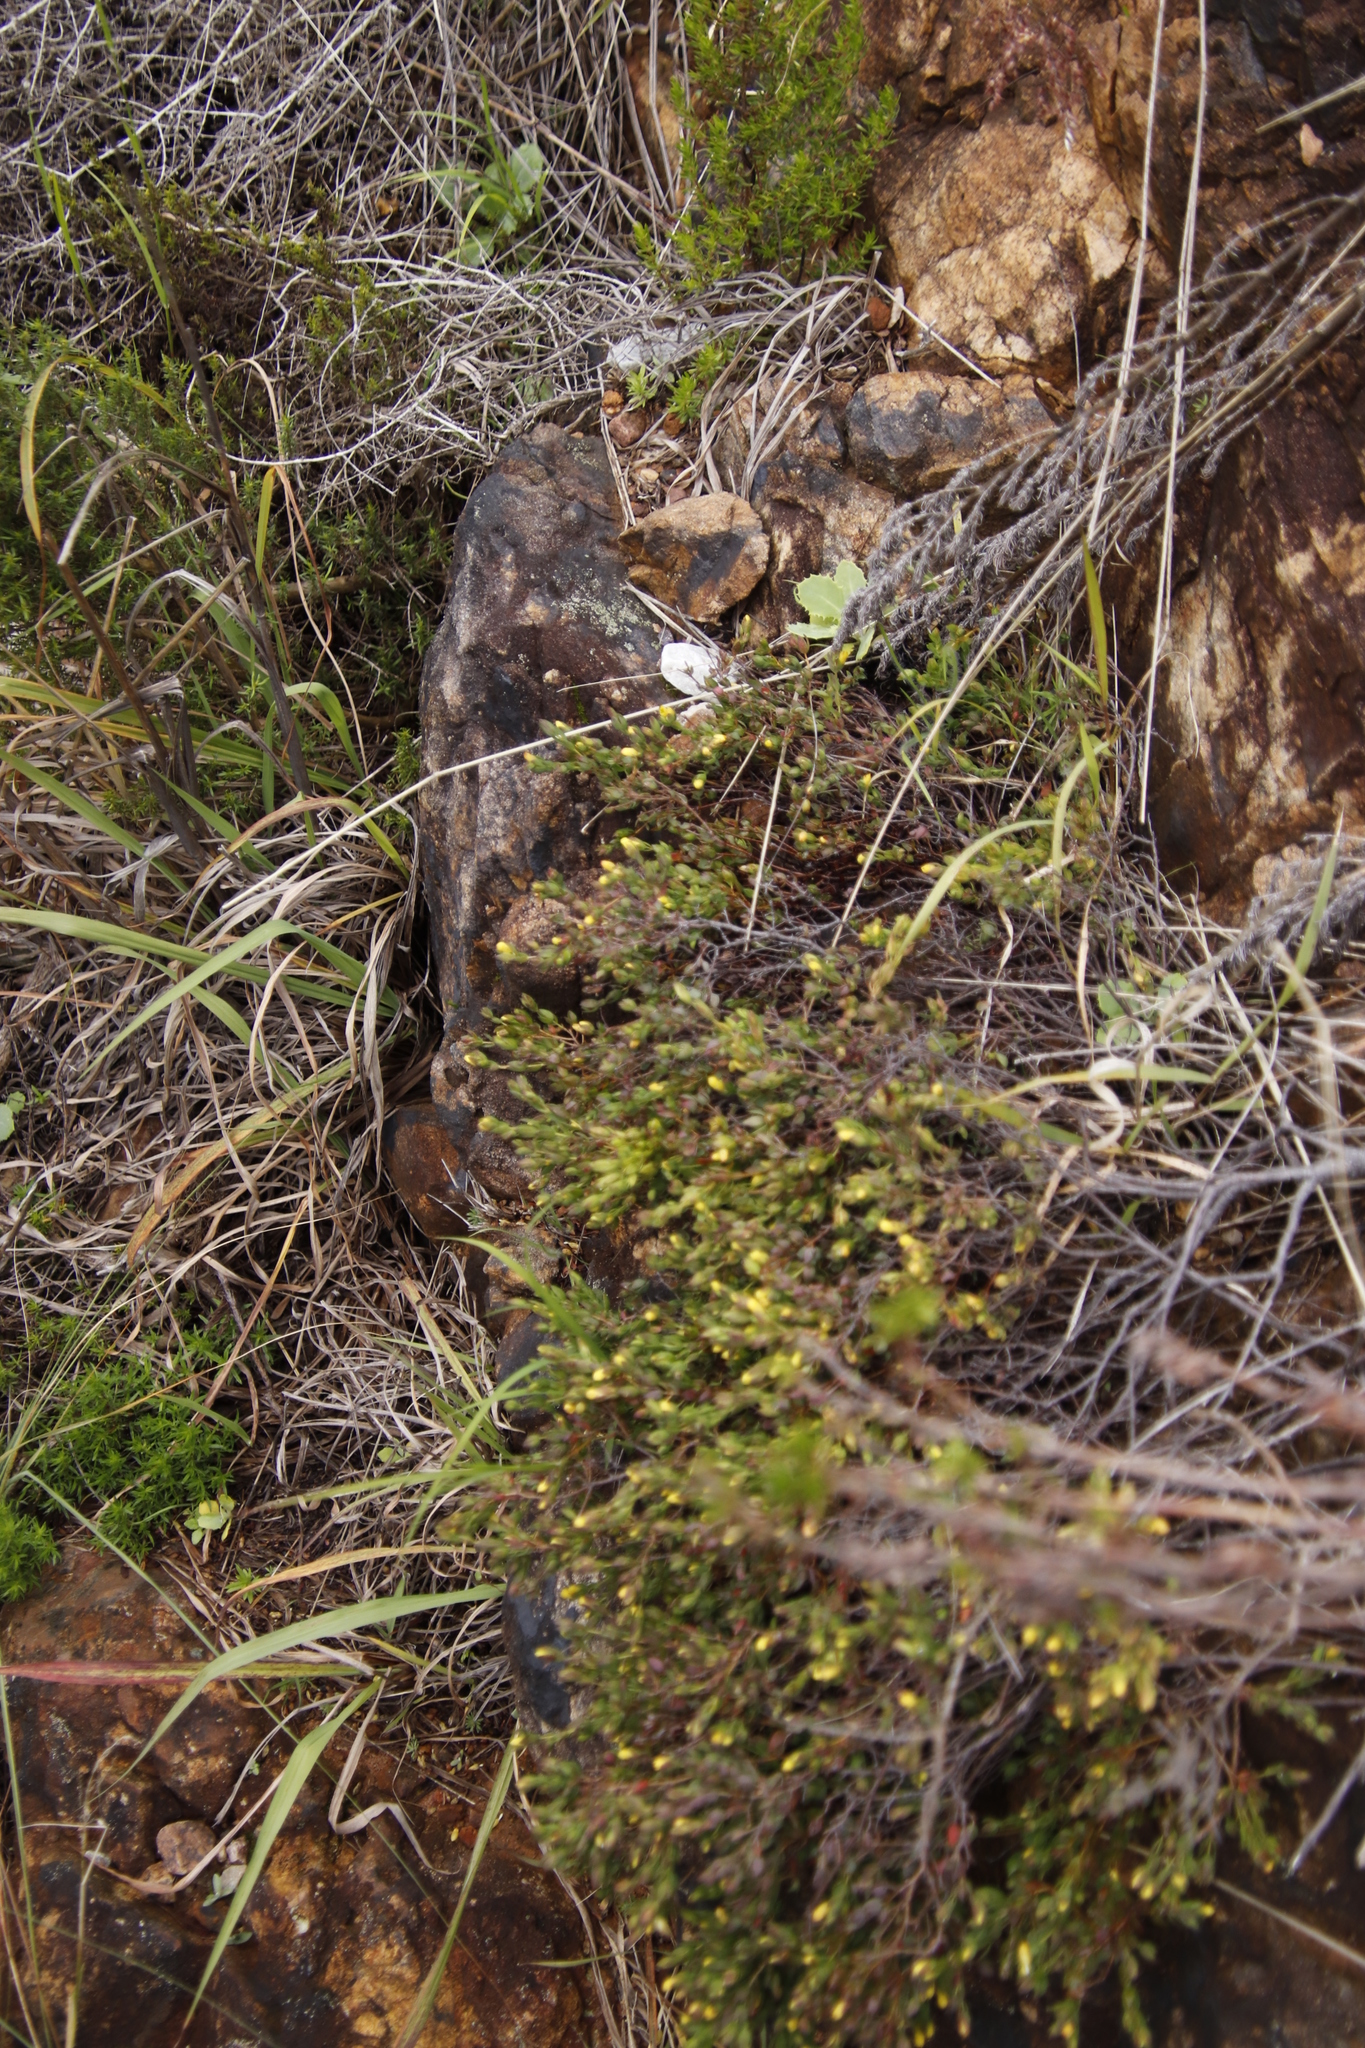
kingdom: Plantae
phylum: Tracheophyta
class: Magnoliopsida
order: Malvales
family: Thymelaeaceae
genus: Gnidia
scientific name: Gnidia juniperifolia
